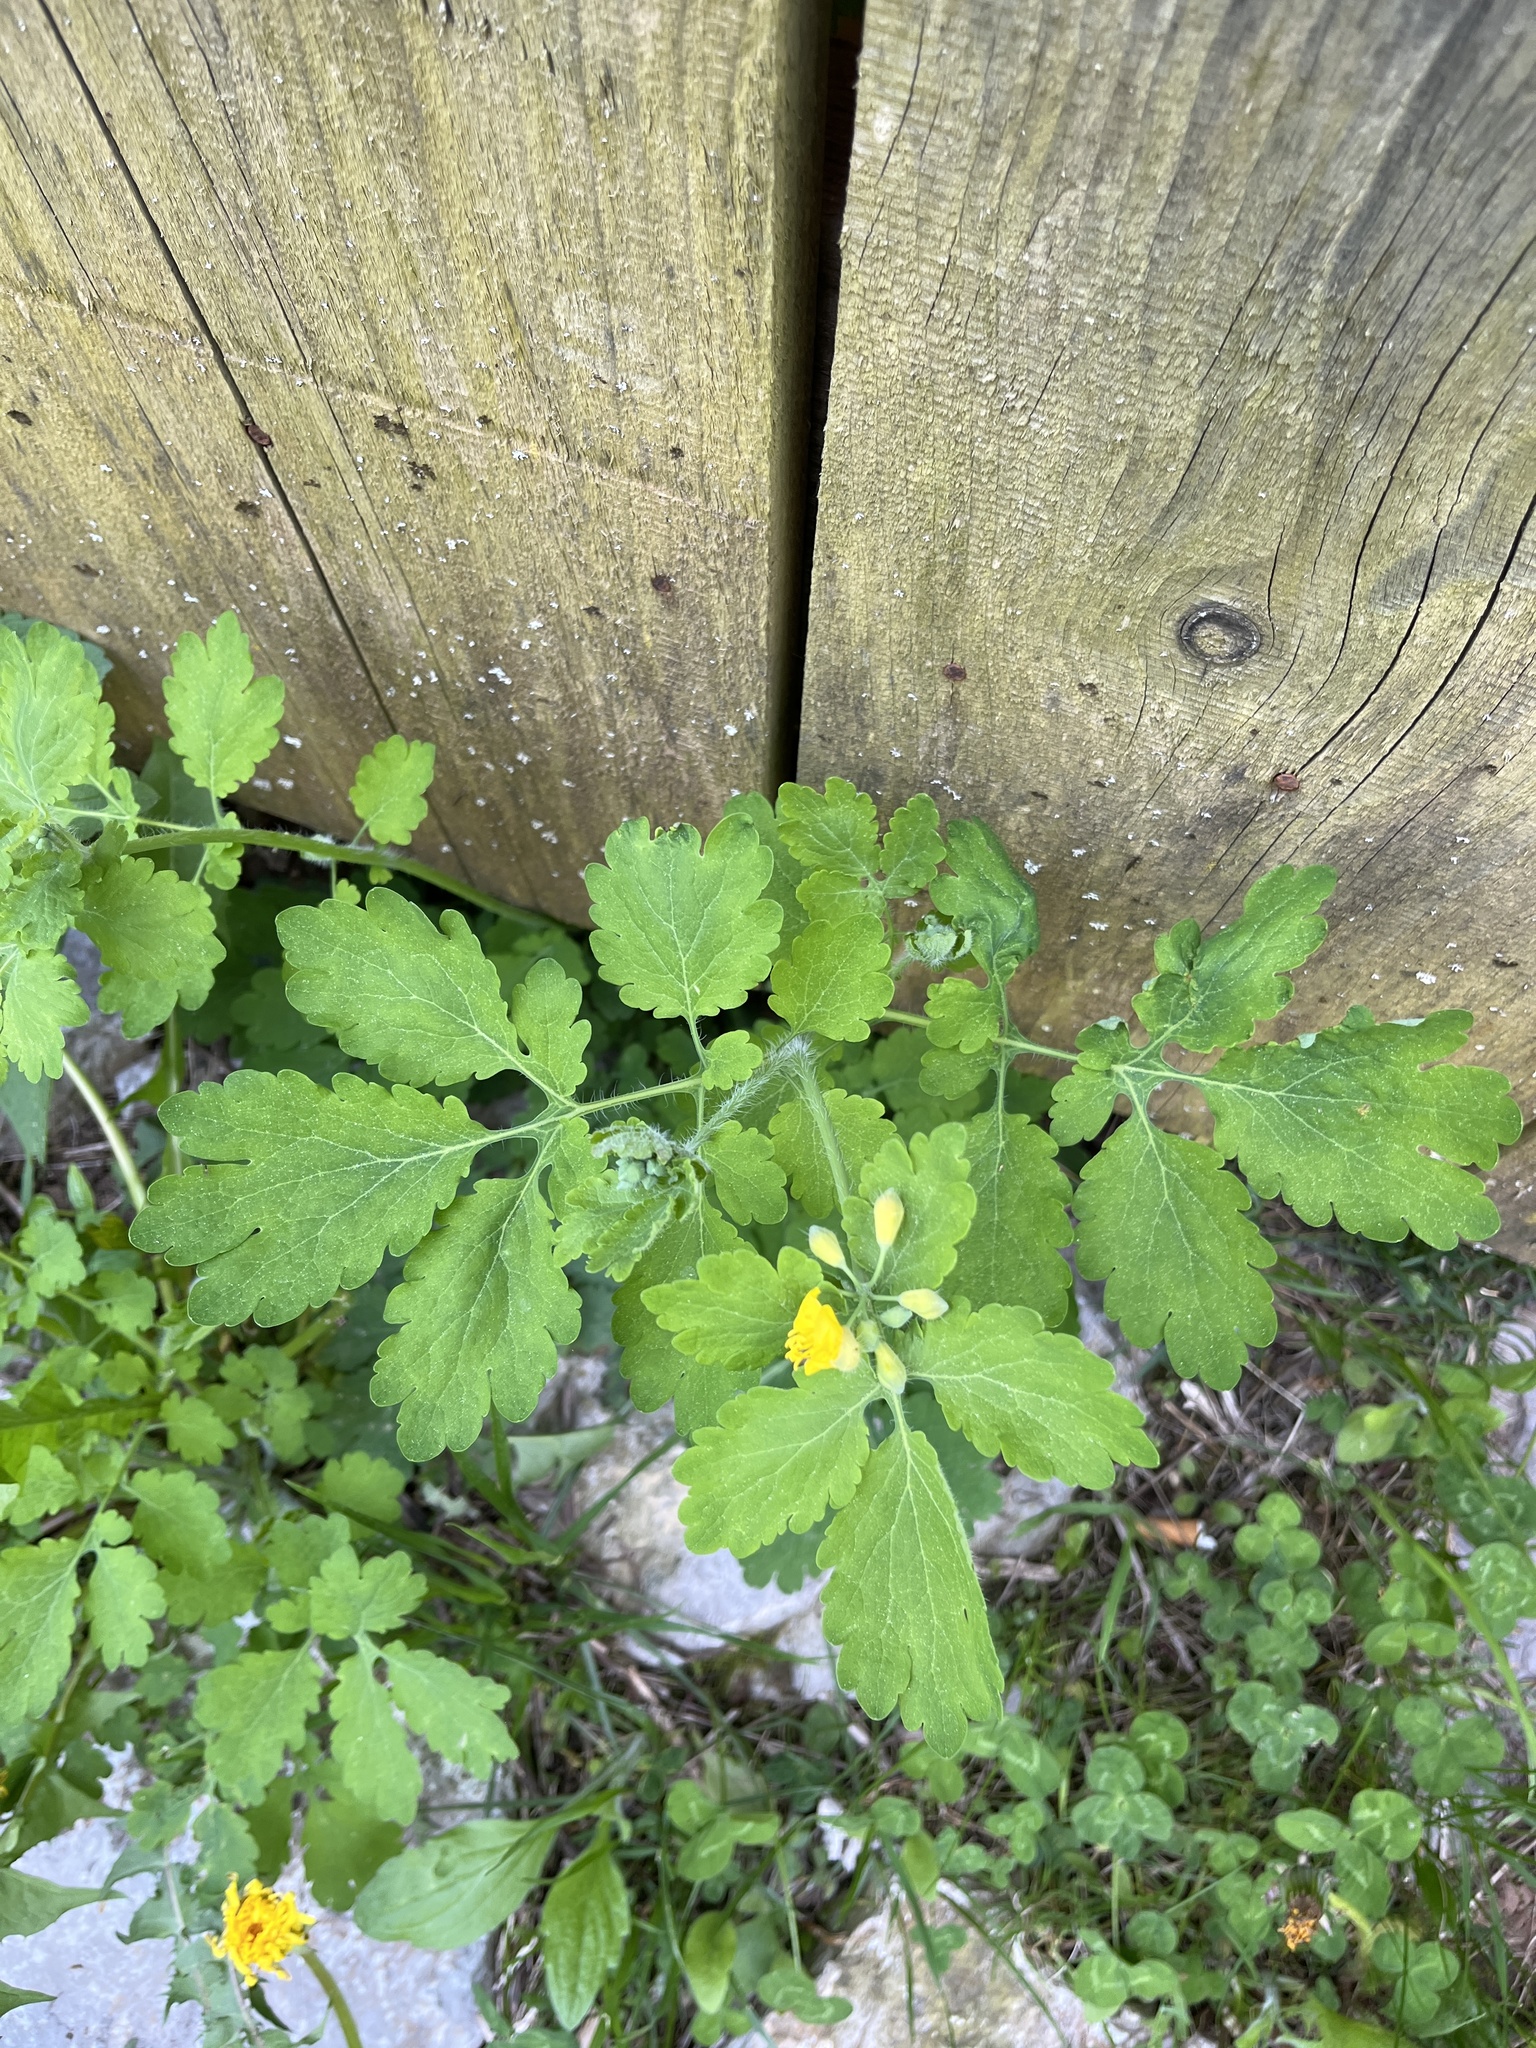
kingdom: Plantae
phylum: Tracheophyta
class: Magnoliopsida
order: Ranunculales
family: Papaveraceae
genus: Chelidonium
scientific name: Chelidonium majus
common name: Greater celandine
